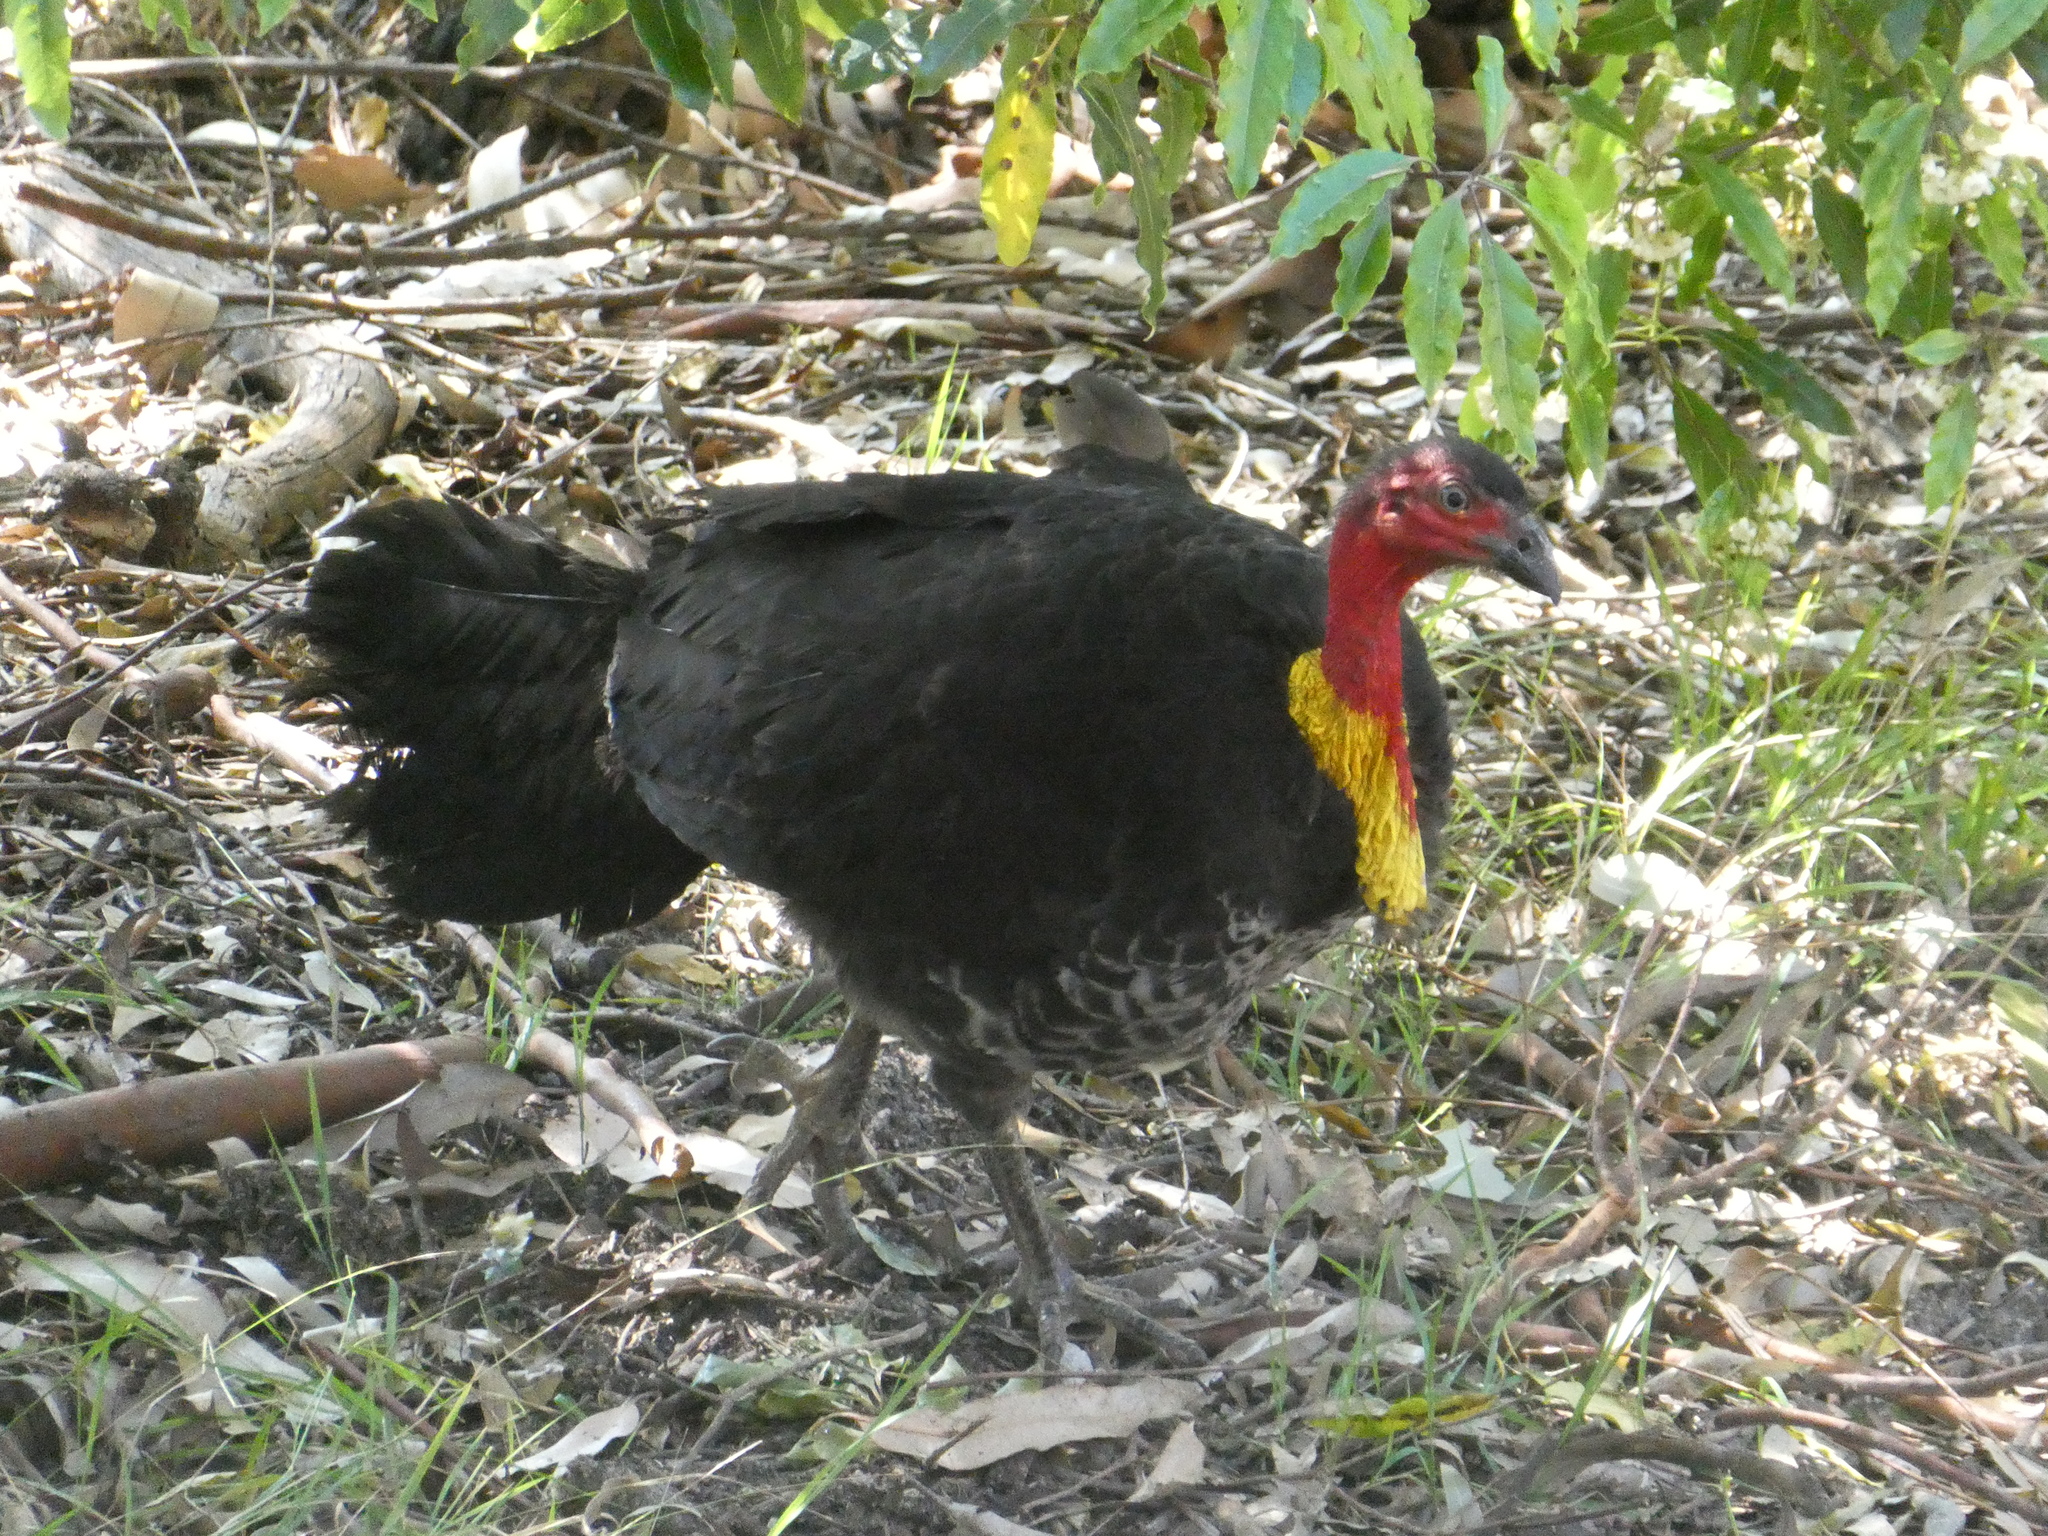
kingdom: Animalia
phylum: Chordata
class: Aves
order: Galliformes
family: Megapodiidae
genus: Alectura
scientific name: Alectura lathami
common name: Australian brushturkey
